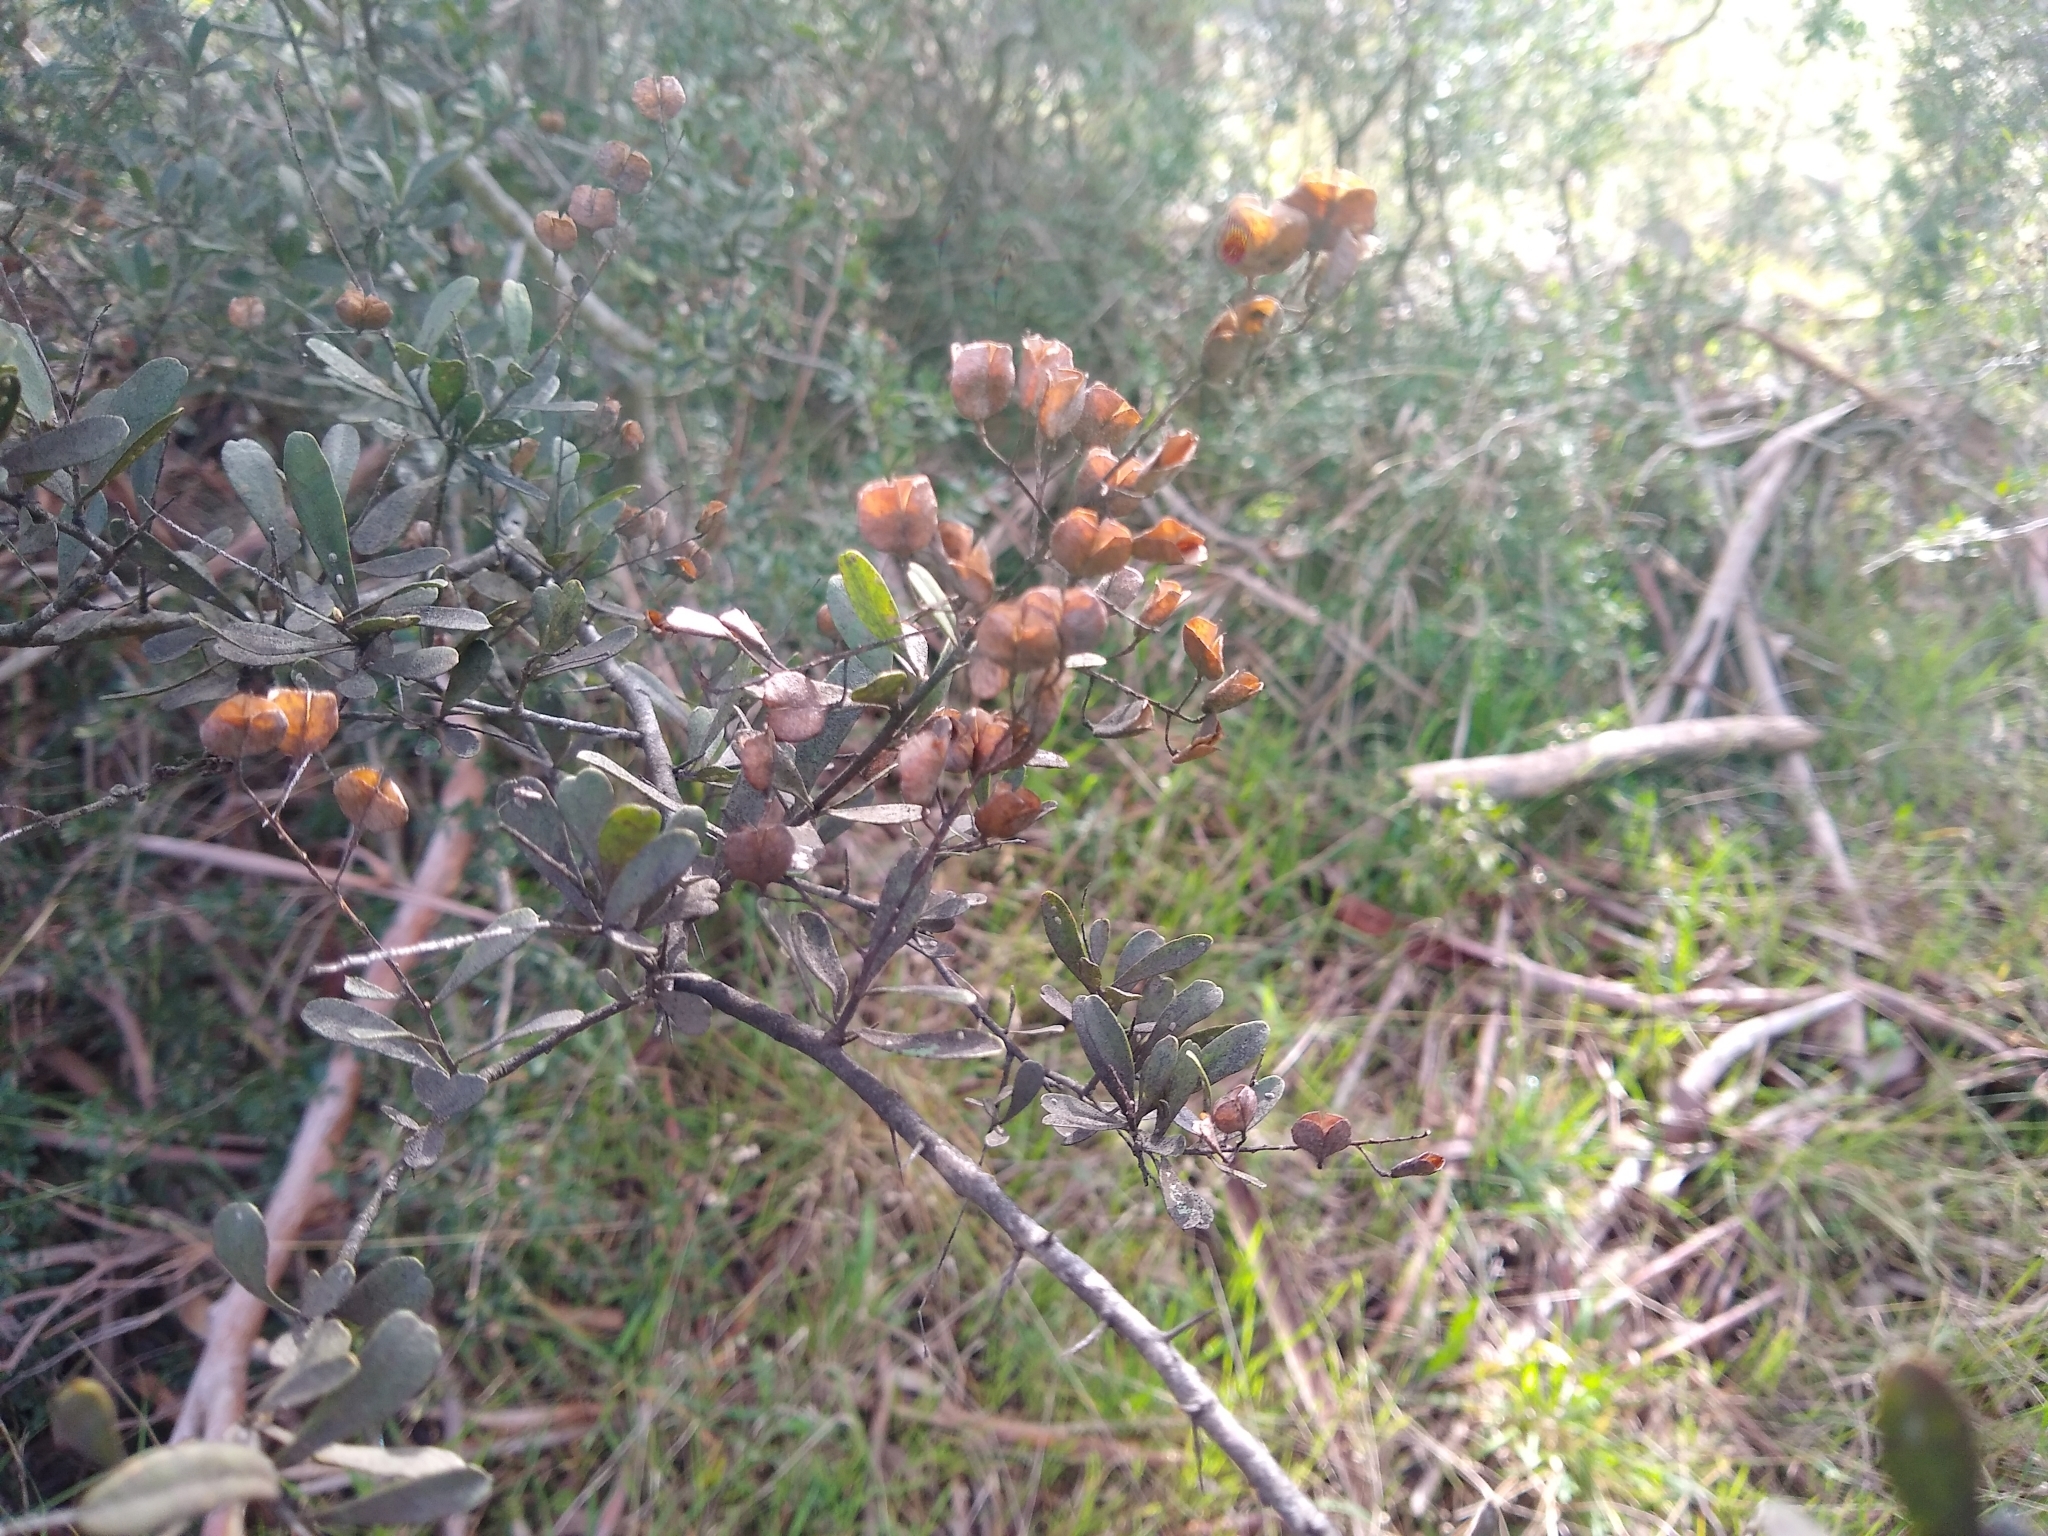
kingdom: Plantae
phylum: Tracheophyta
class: Magnoliopsida
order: Apiales
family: Pittosporaceae
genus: Bursaria
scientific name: Bursaria spinosa
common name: Australian blackthorn
